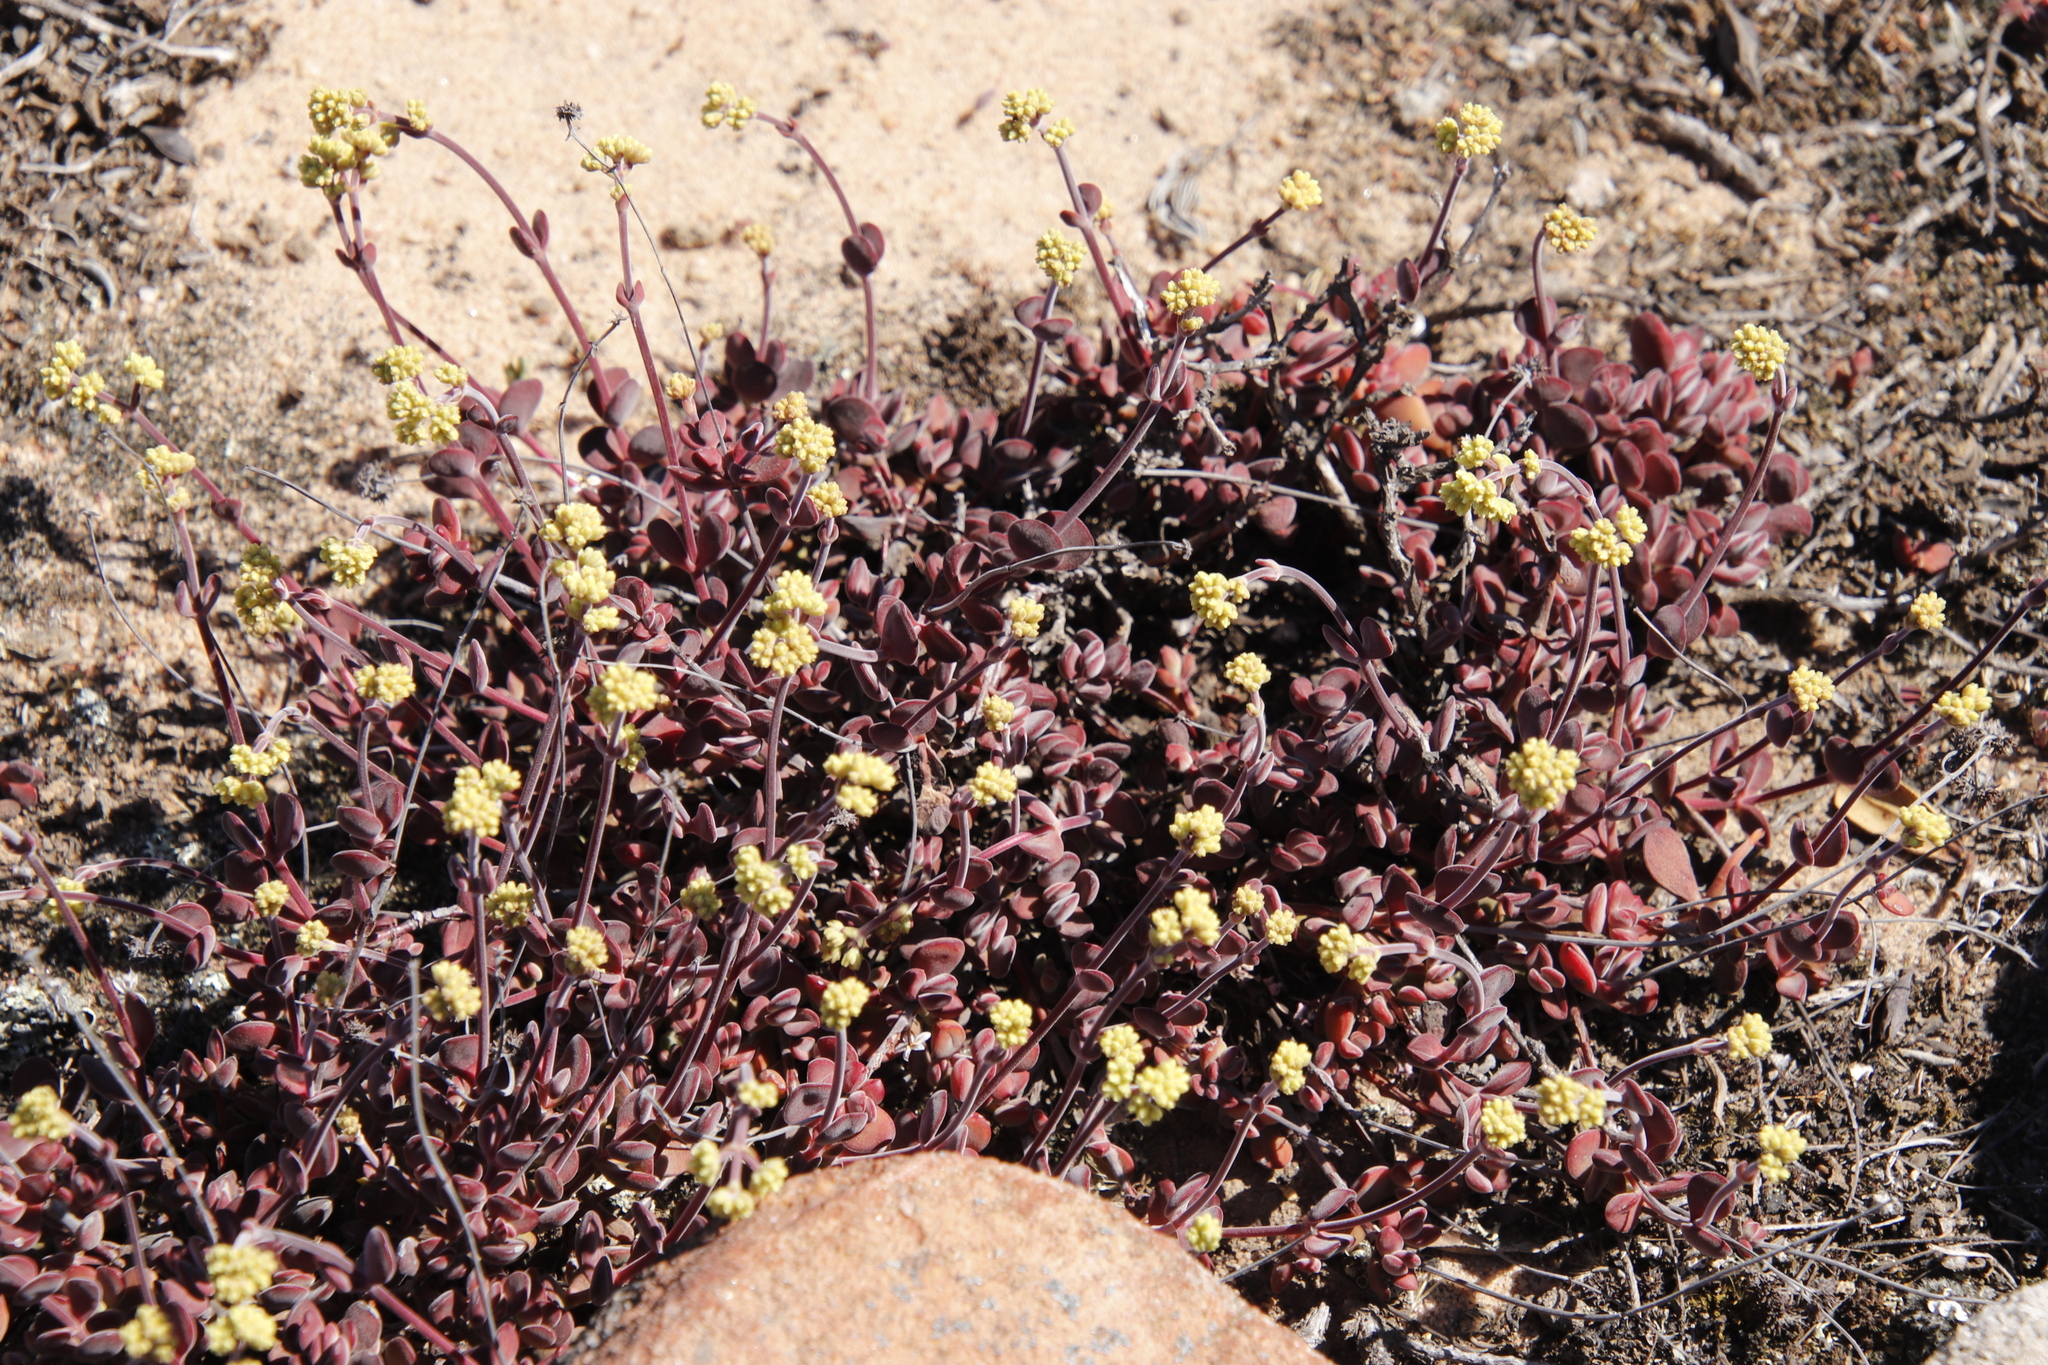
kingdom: Plantae
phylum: Tracheophyta
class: Magnoliopsida
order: Saxifragales
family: Crassulaceae
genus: Crassula
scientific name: Crassula atropurpurea
